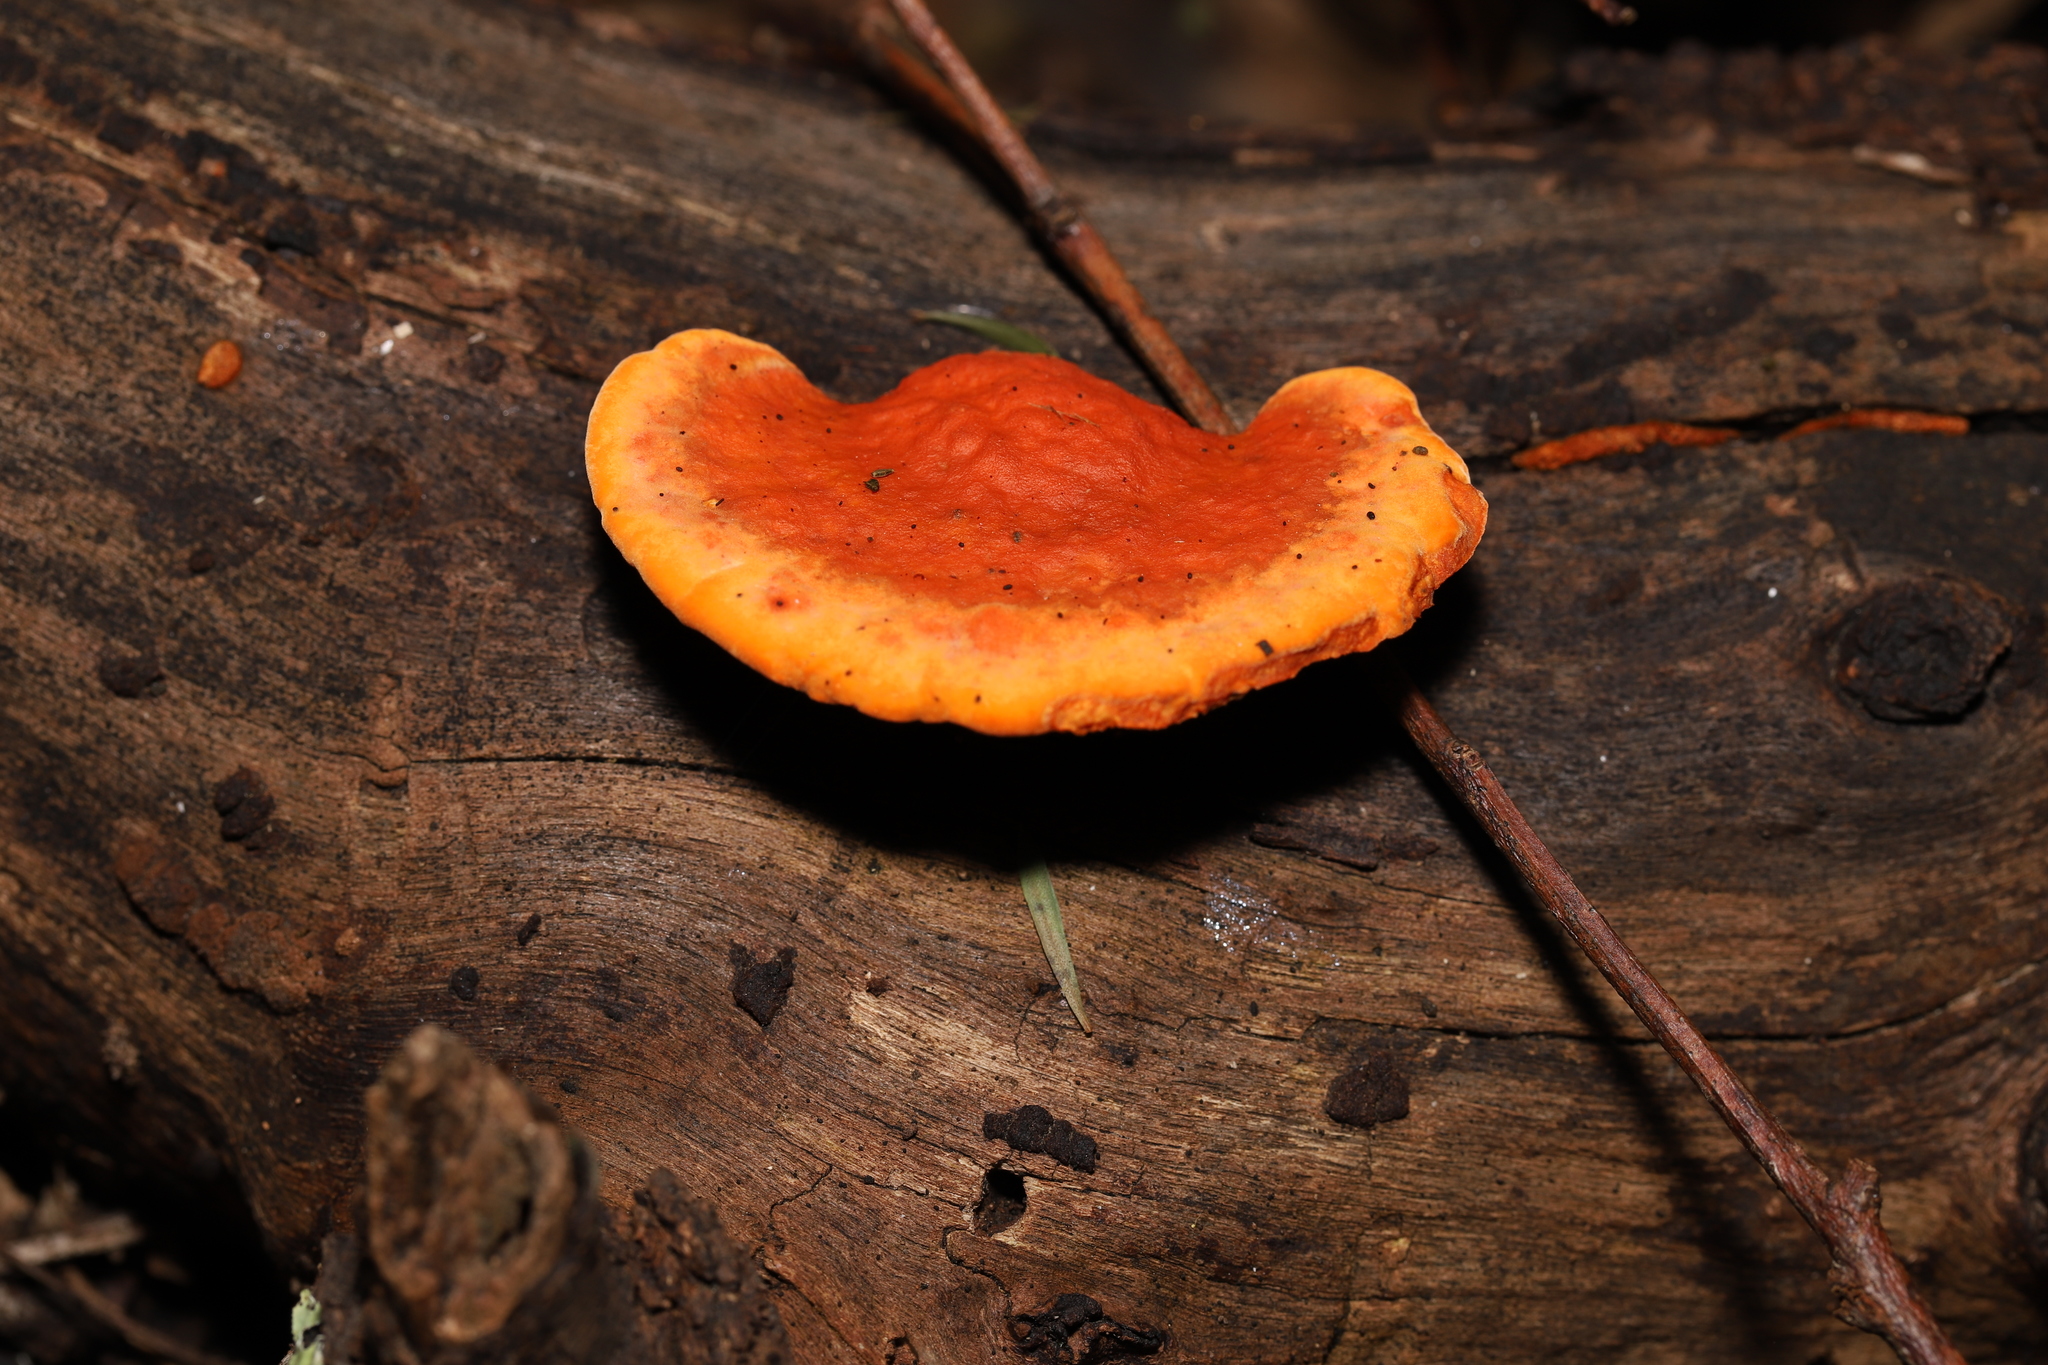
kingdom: Fungi
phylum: Basidiomycota
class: Agaricomycetes
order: Polyporales
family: Polyporaceae
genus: Trametes
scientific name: Trametes coccinea
